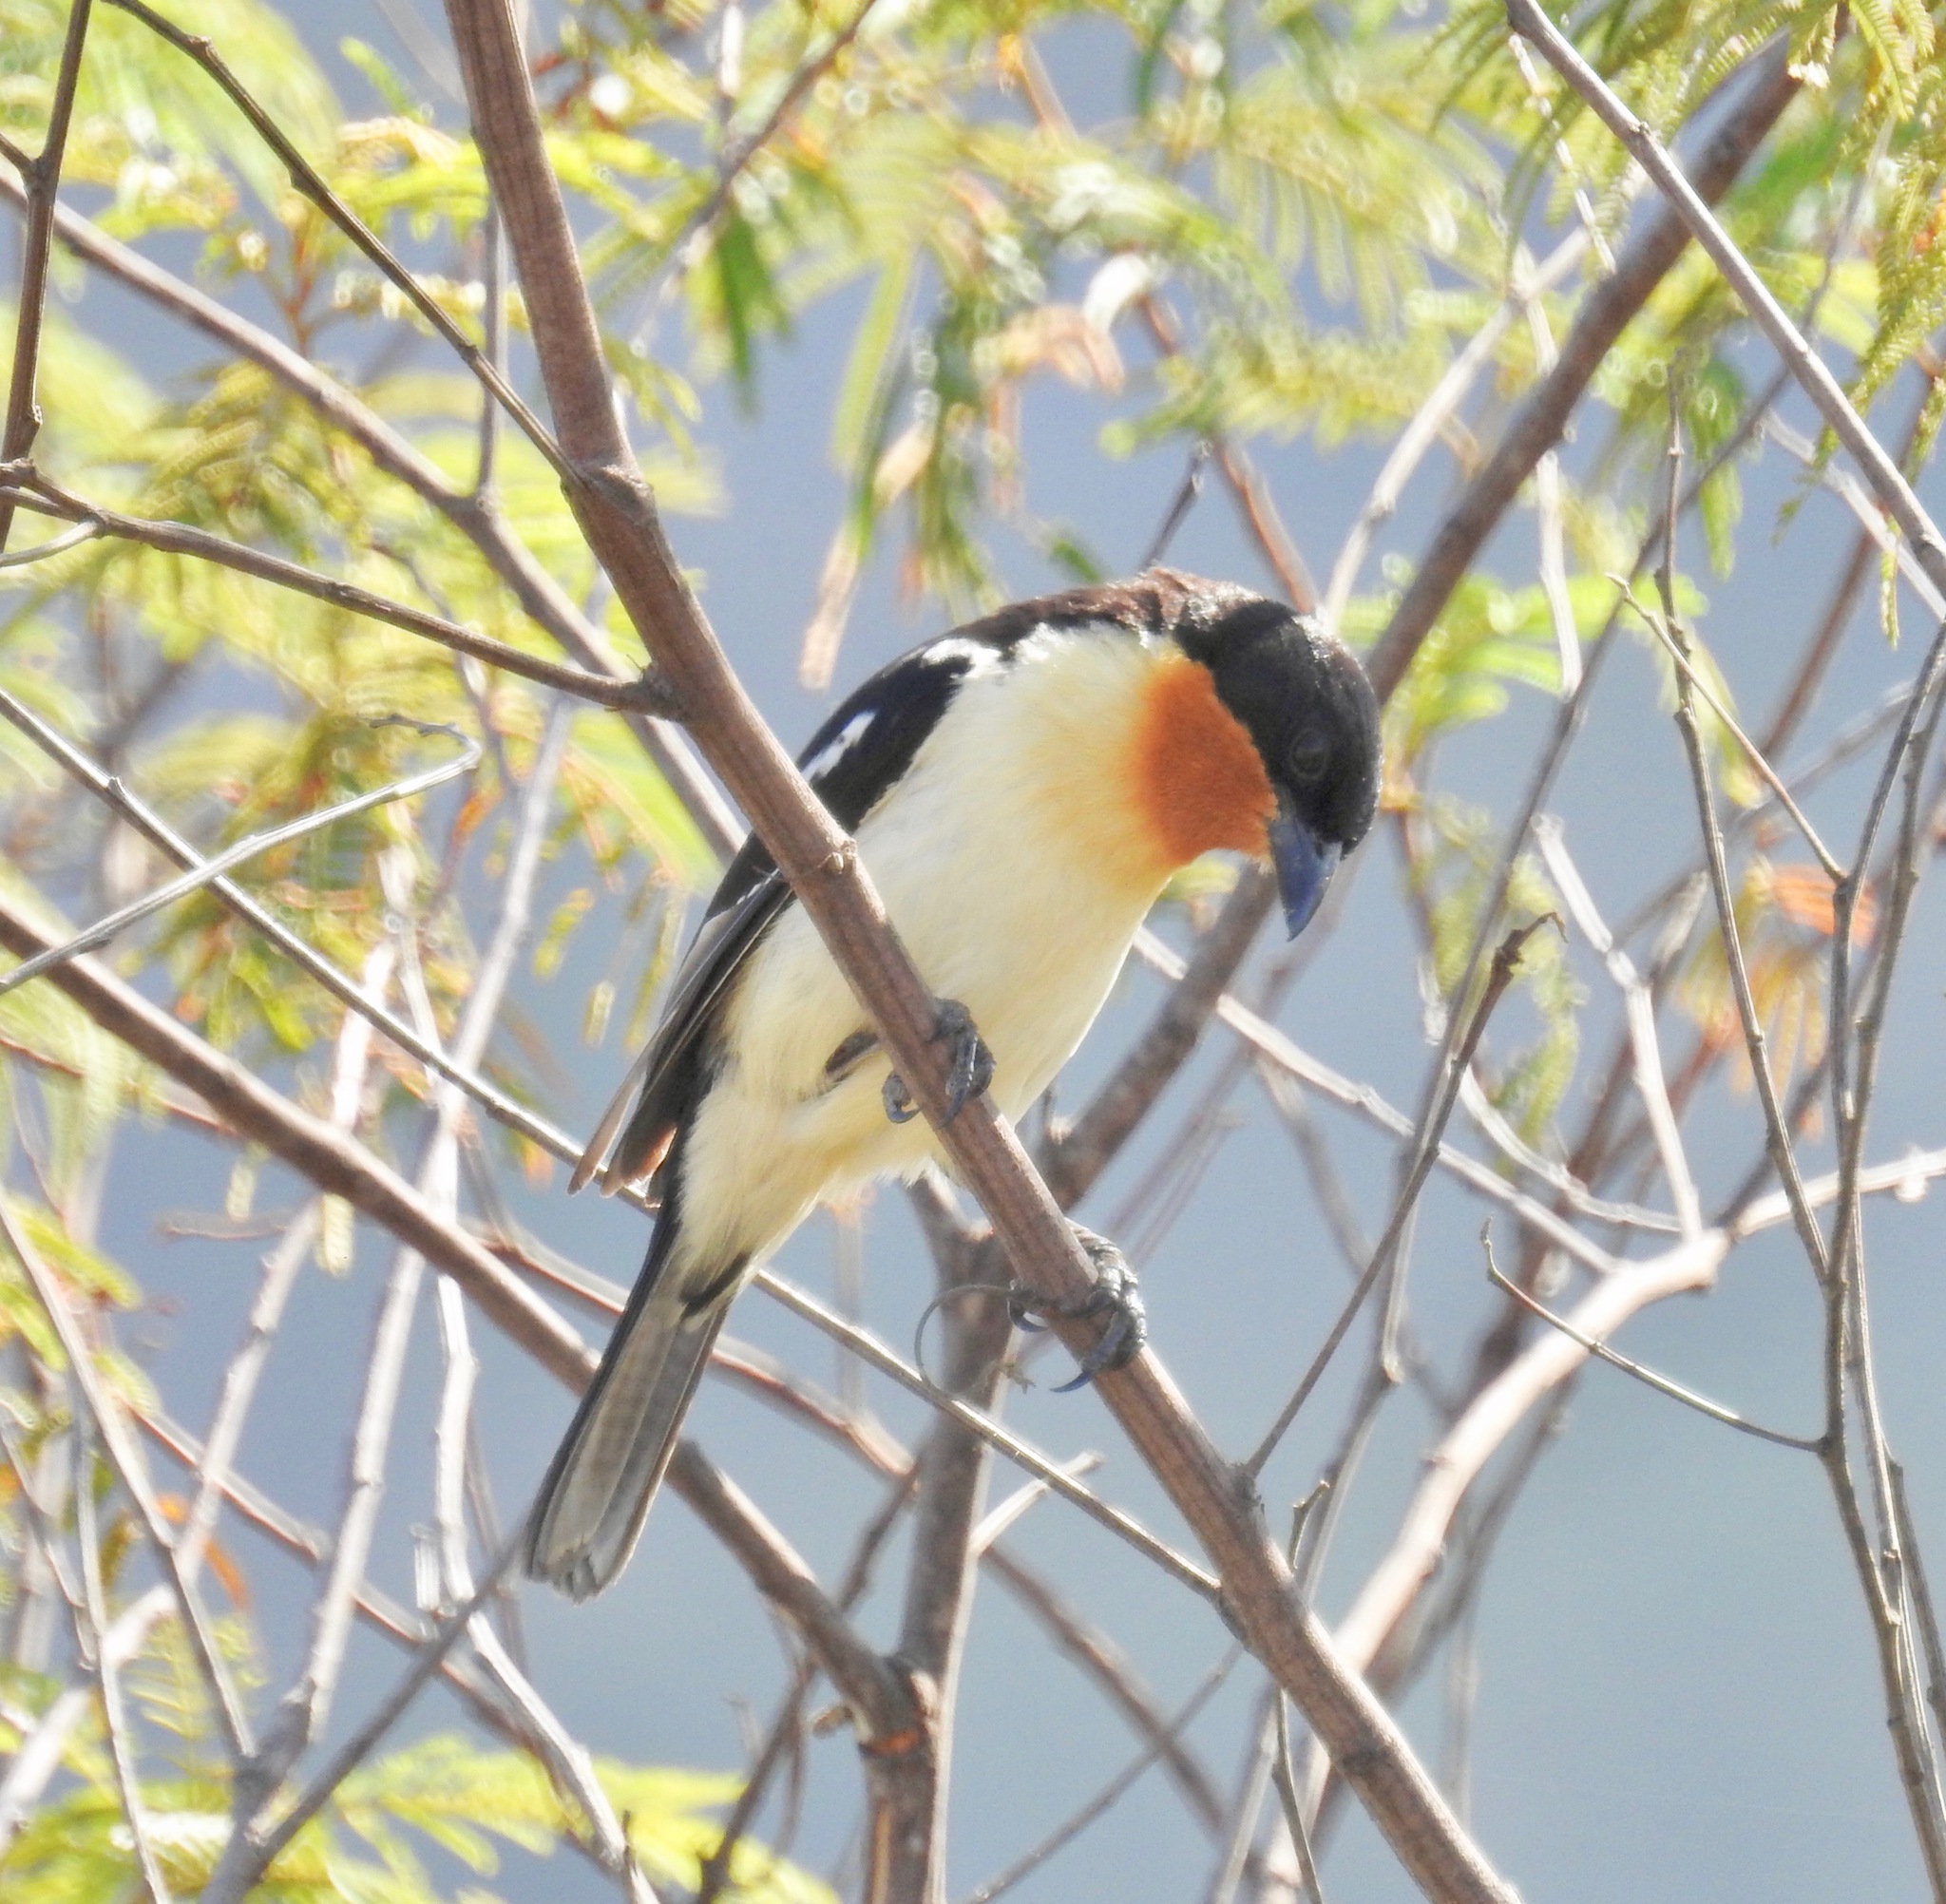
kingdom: Animalia
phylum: Chordata
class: Aves
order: Passeriformes
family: Thraupidae
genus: Cypsnagra
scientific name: Cypsnagra hirundinacea
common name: White-rumped tanager
